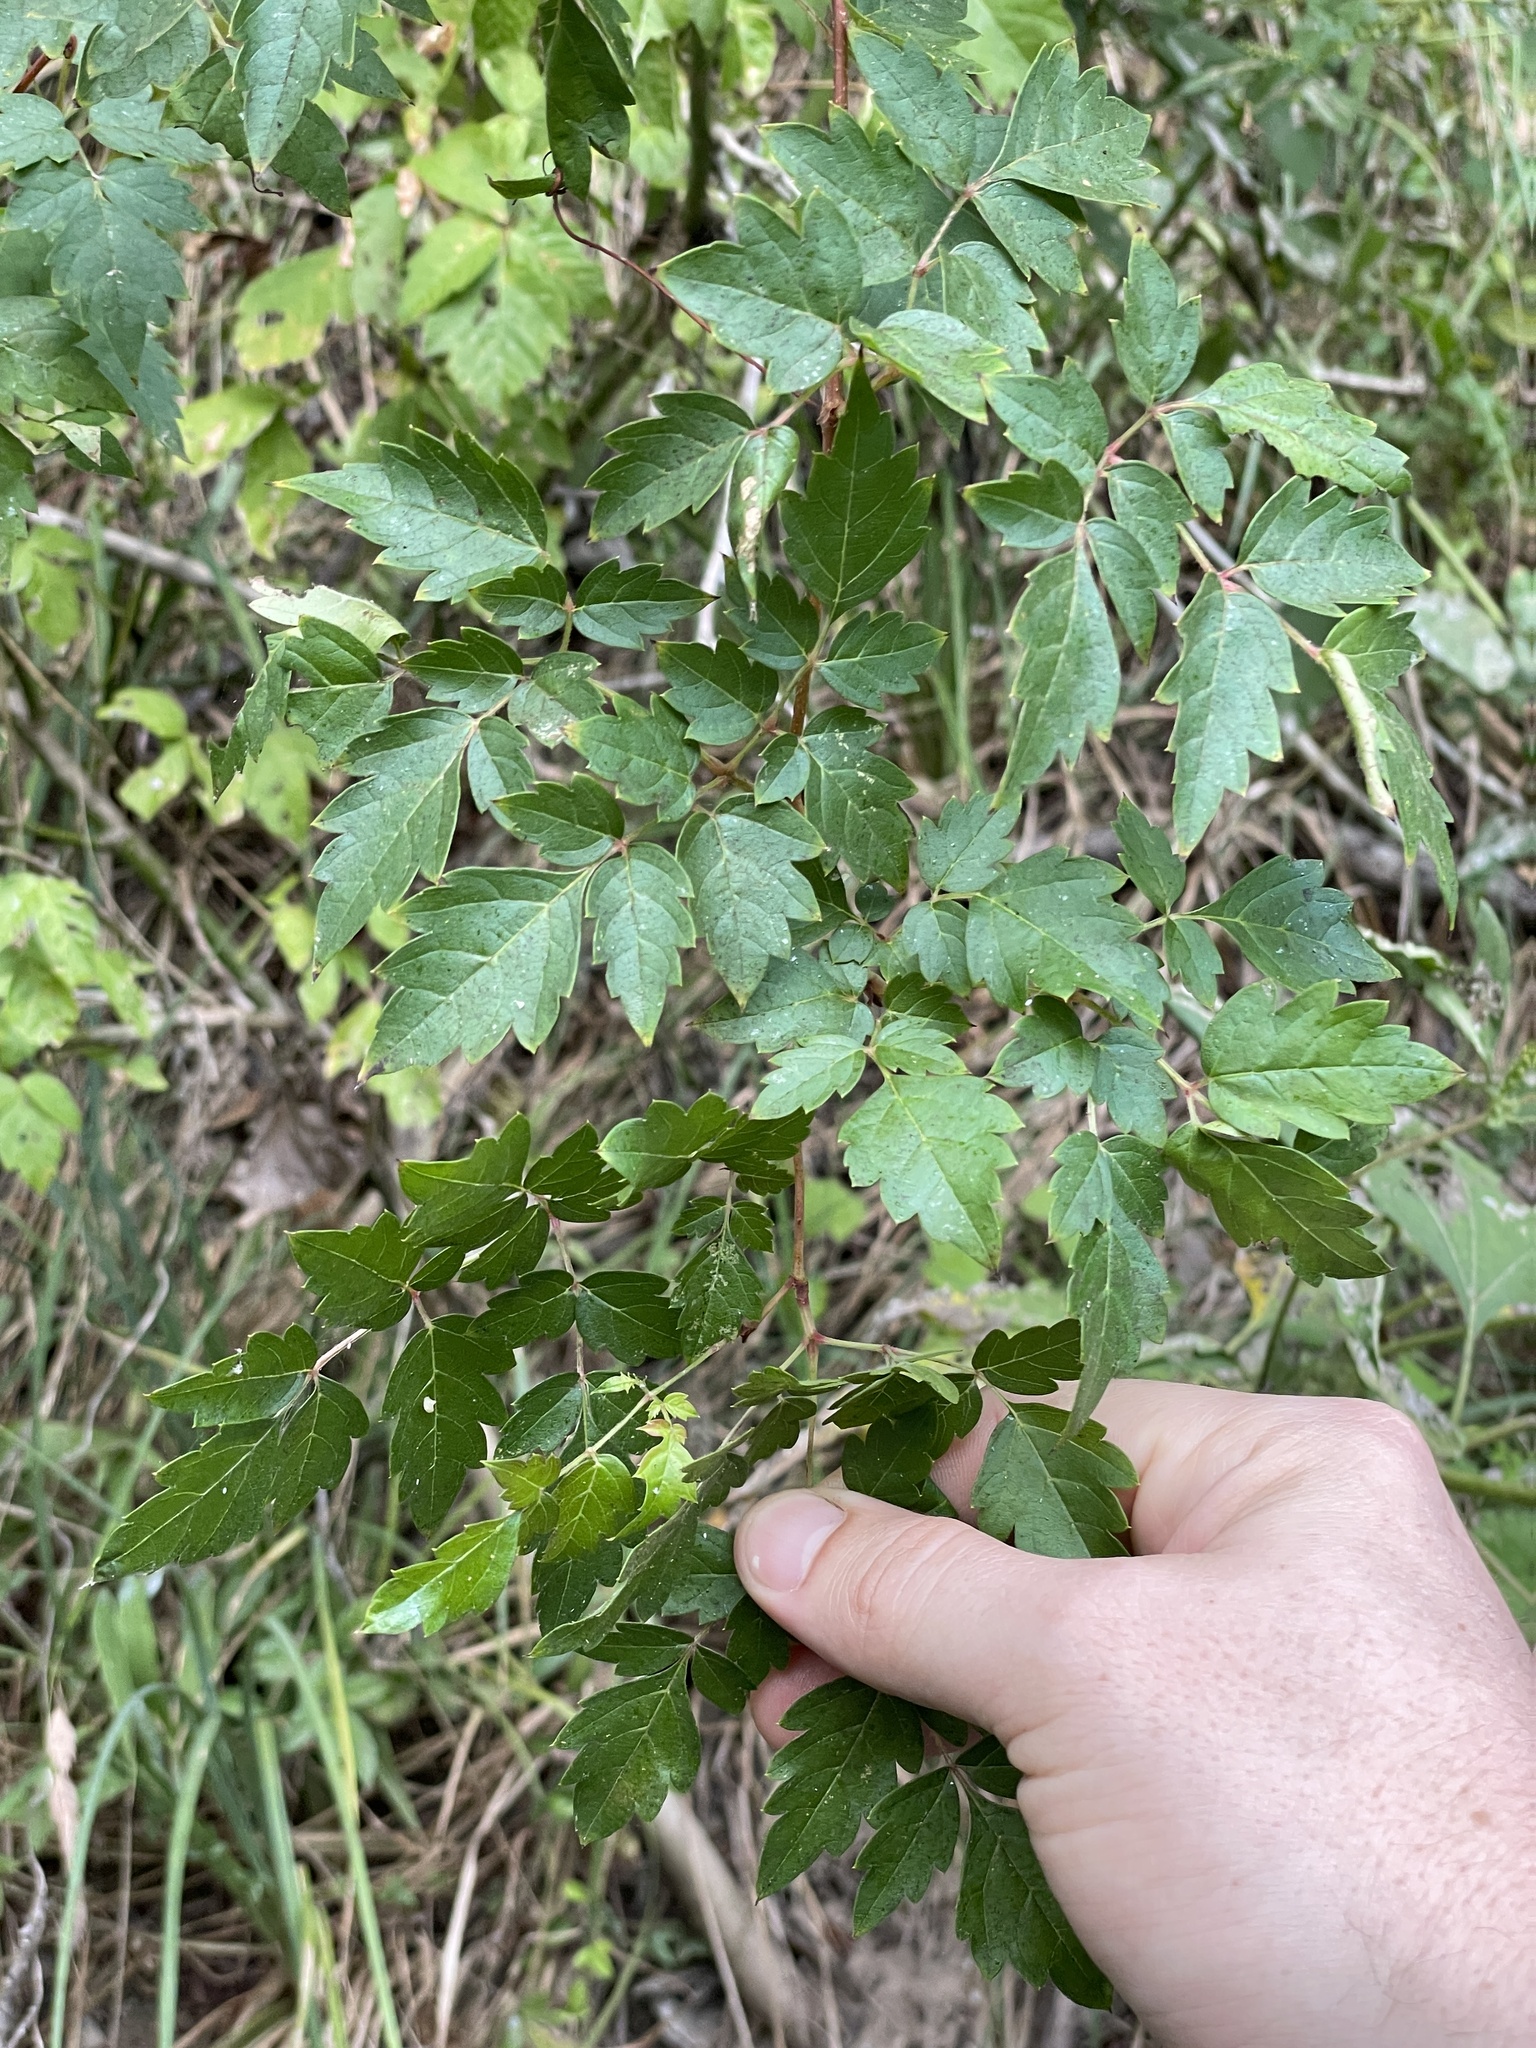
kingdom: Plantae
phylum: Tracheophyta
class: Magnoliopsida
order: Vitales
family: Vitaceae
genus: Nekemias
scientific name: Nekemias arborea
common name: Peppervine
